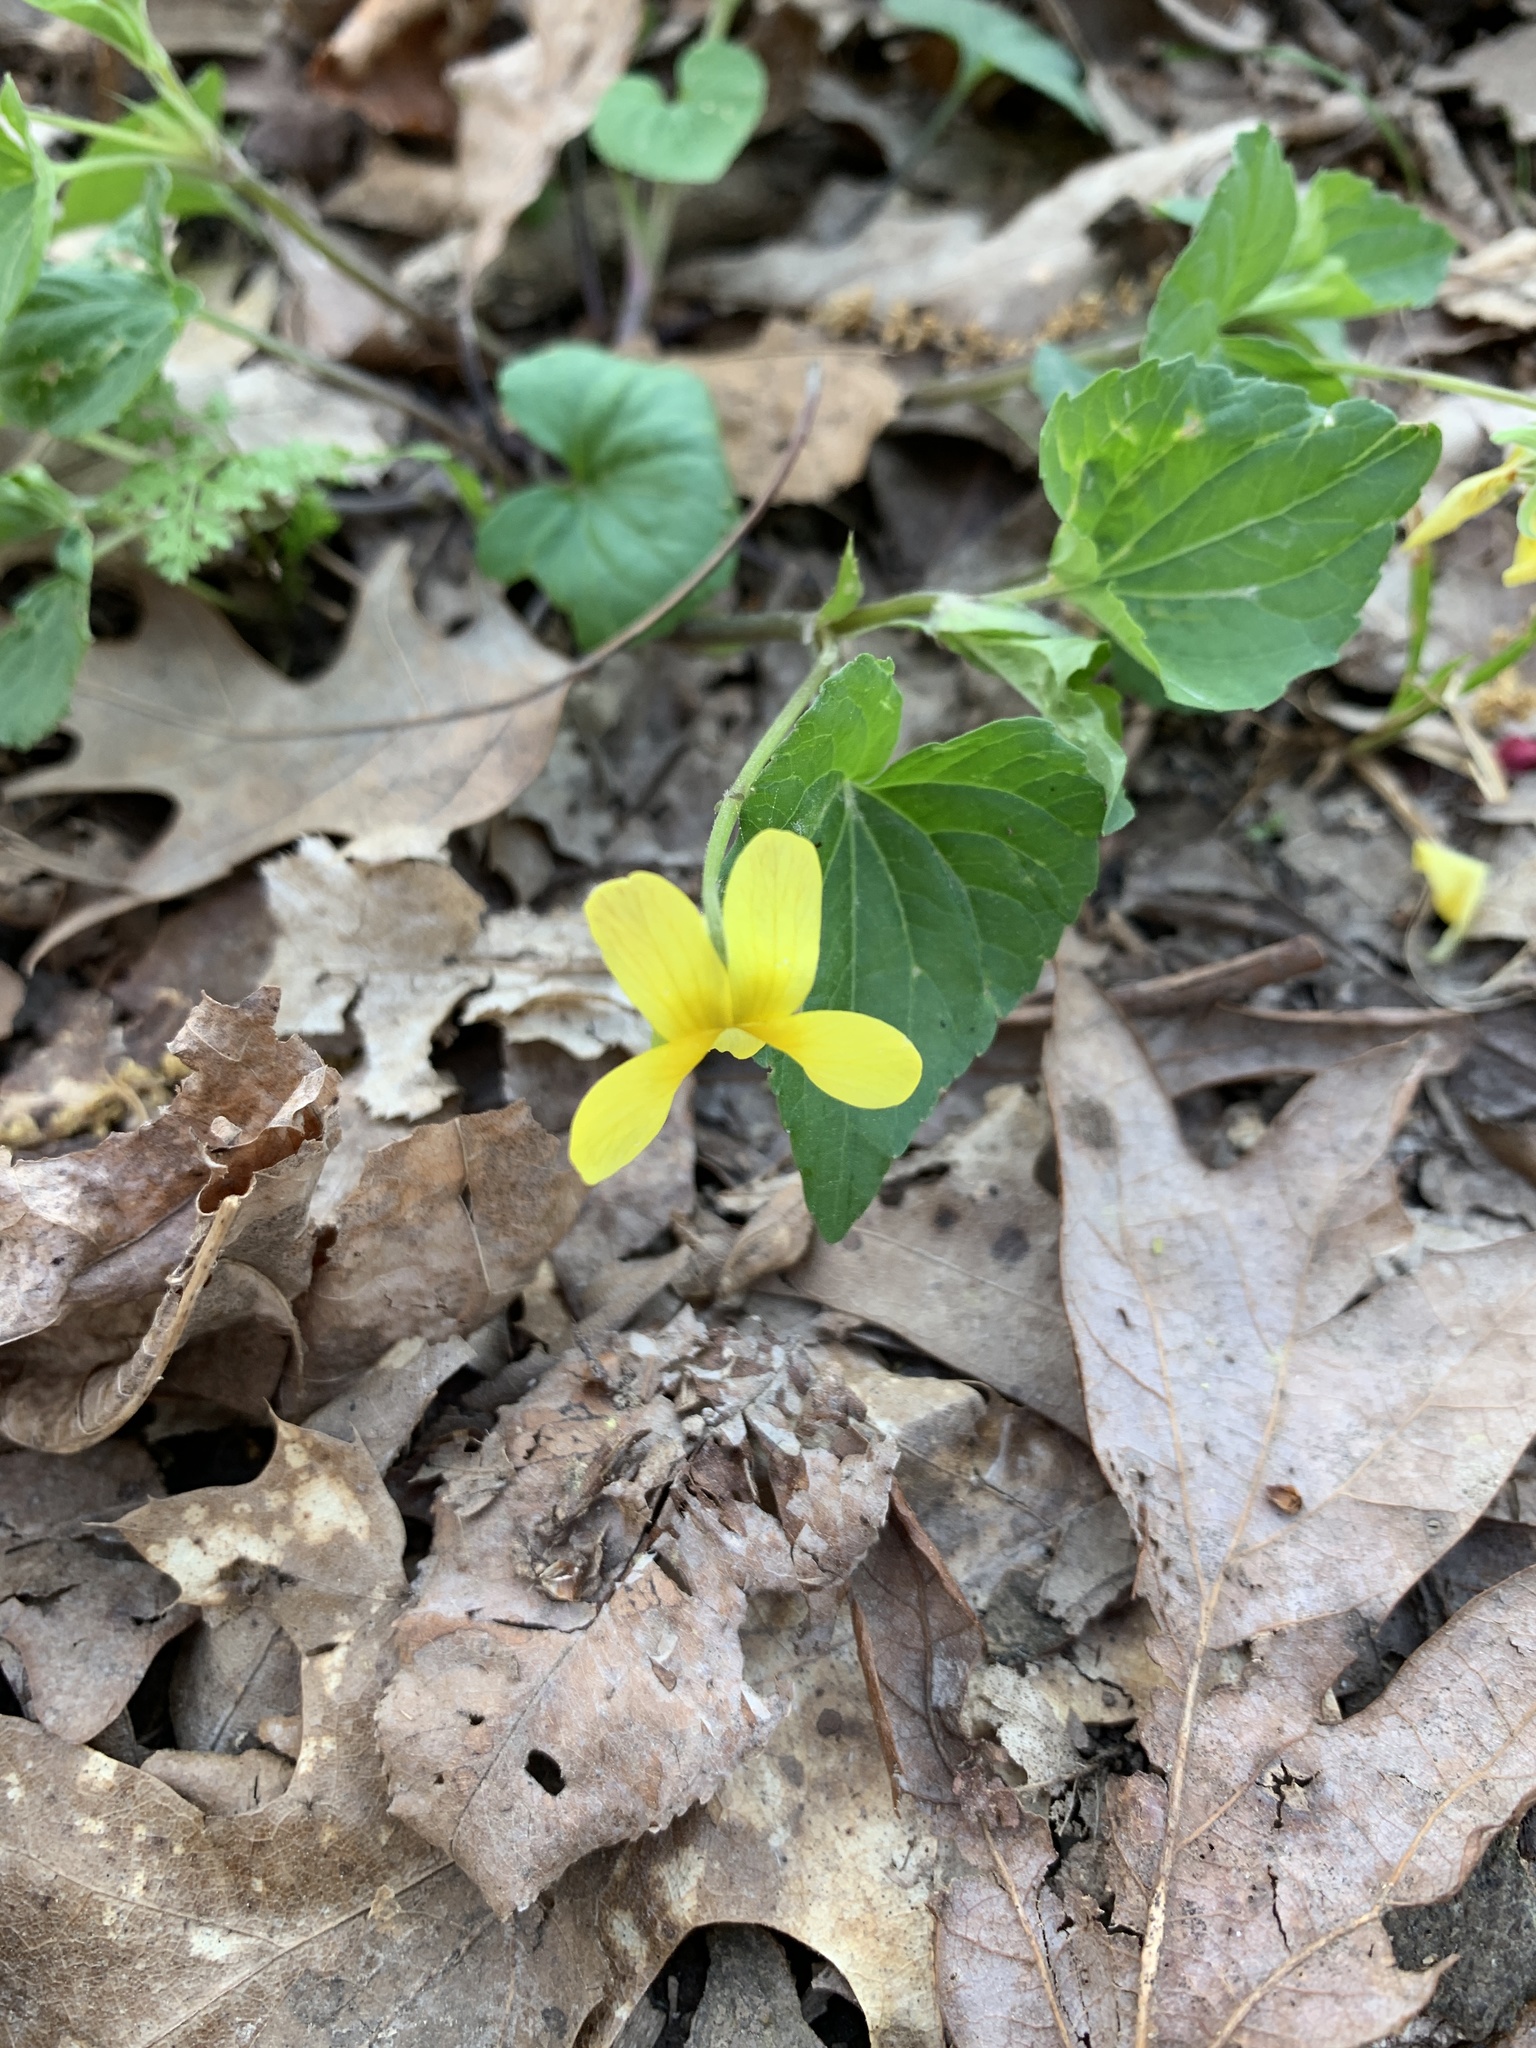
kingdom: Plantae
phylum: Tracheophyta
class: Magnoliopsida
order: Malpighiales
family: Violaceae
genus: Viola
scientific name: Viola eriocarpa
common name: Smooth yellow violet
